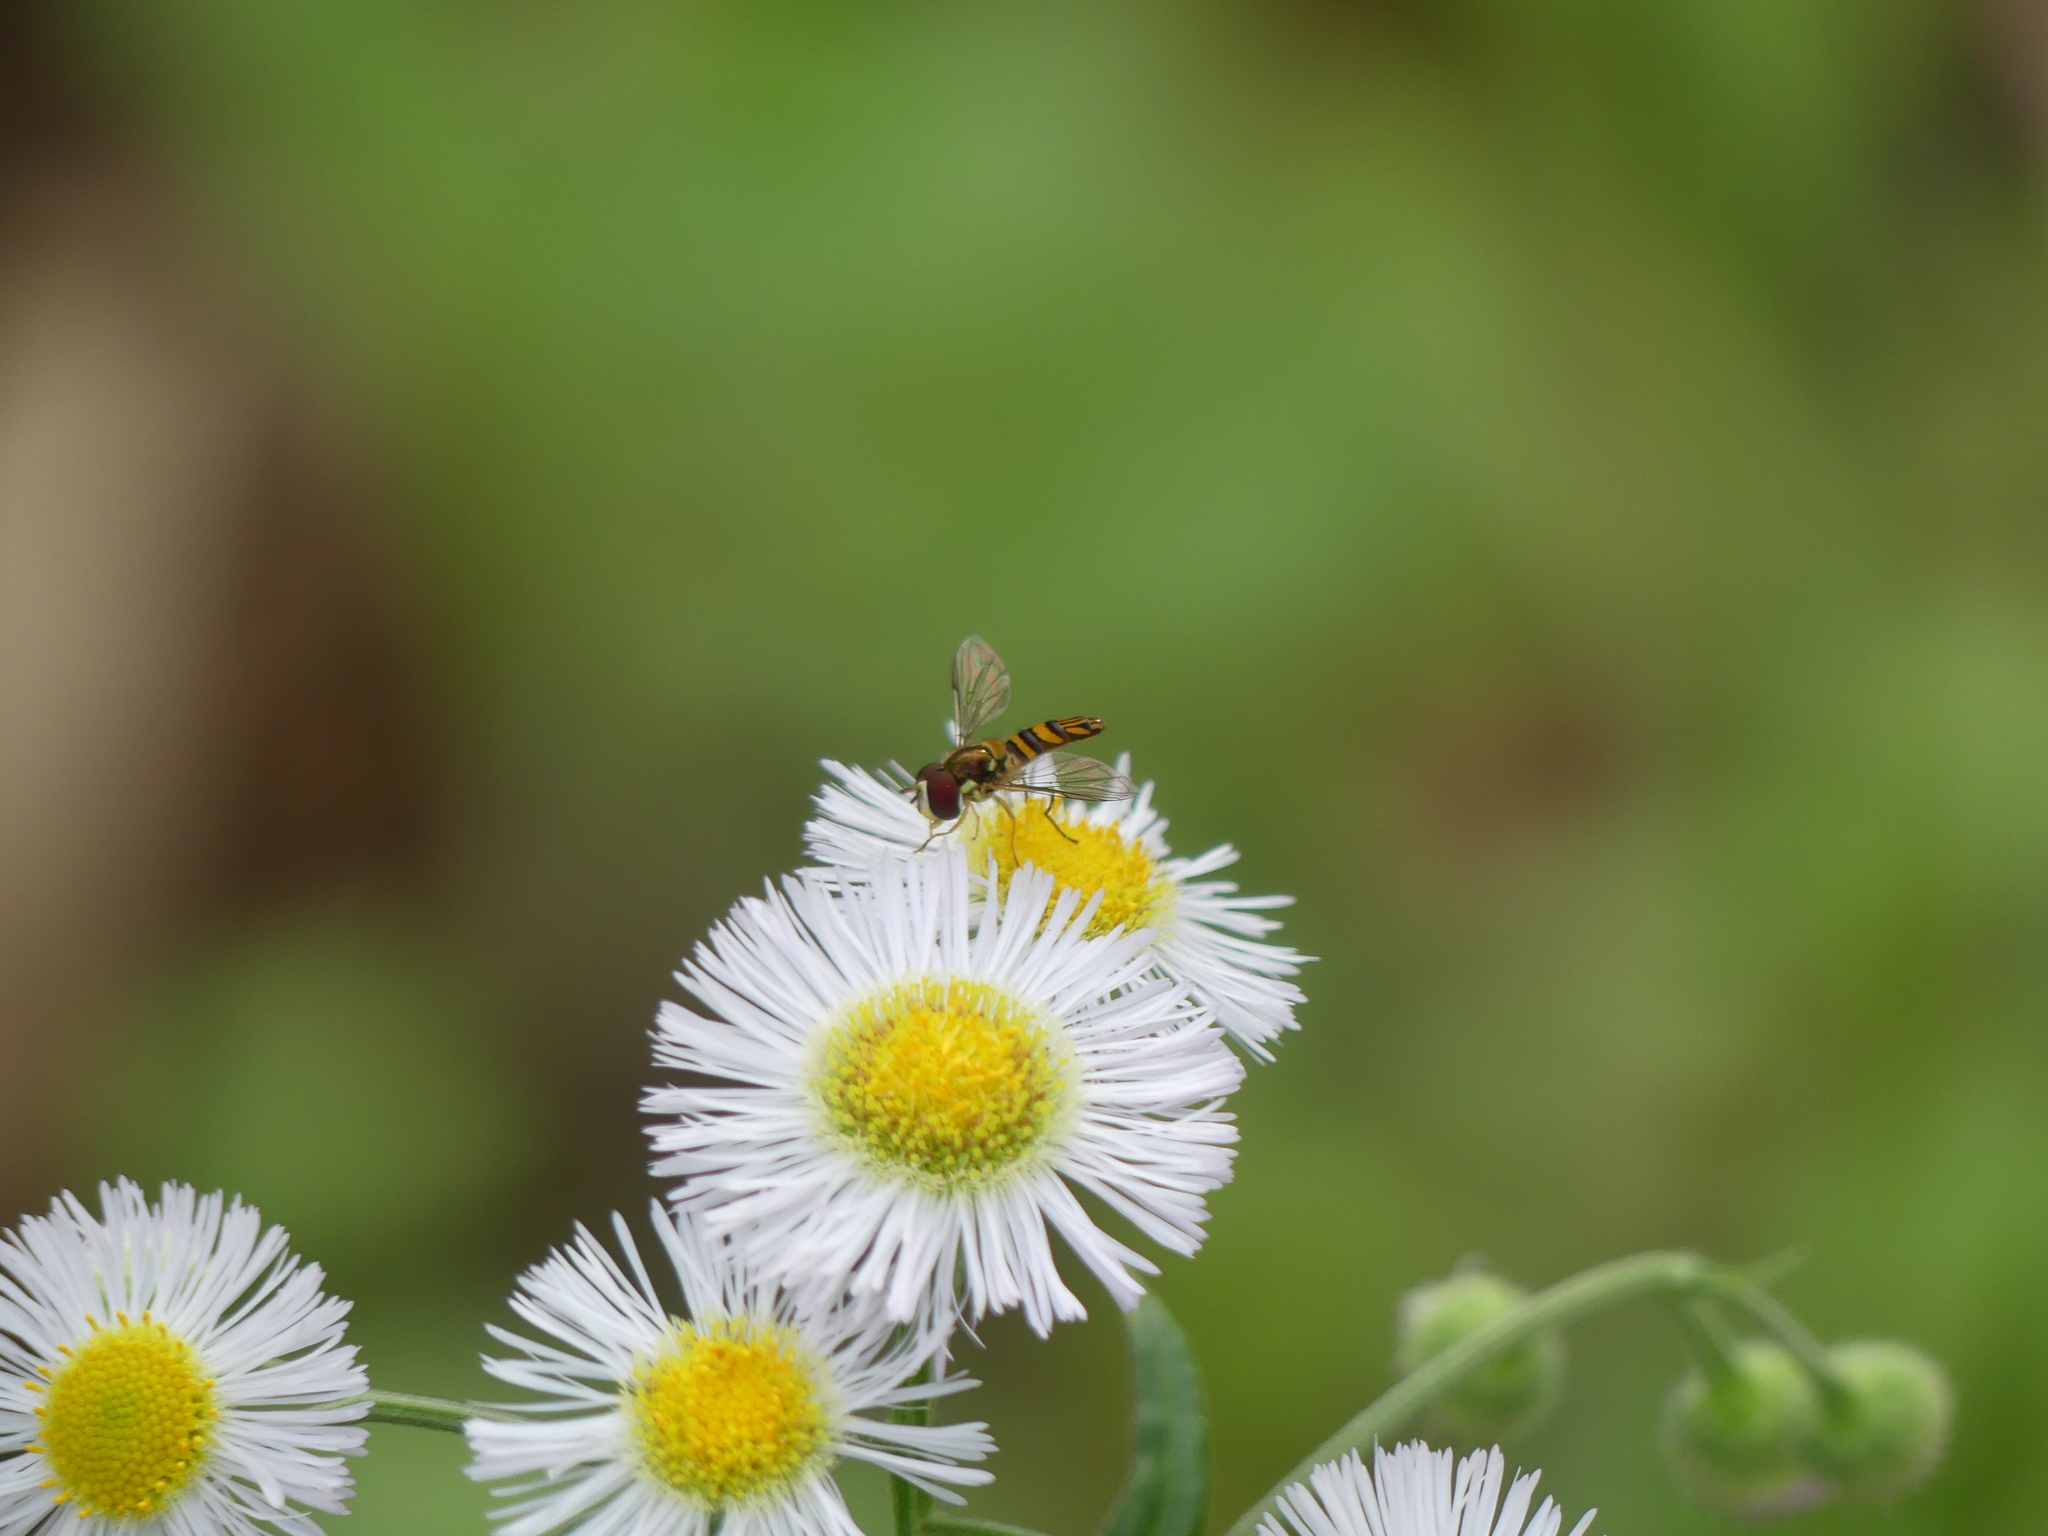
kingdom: Animalia
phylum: Arthropoda
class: Insecta
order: Diptera
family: Syrphidae
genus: Allograpta
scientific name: Allograpta obliqua
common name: Common oblique syrphid
